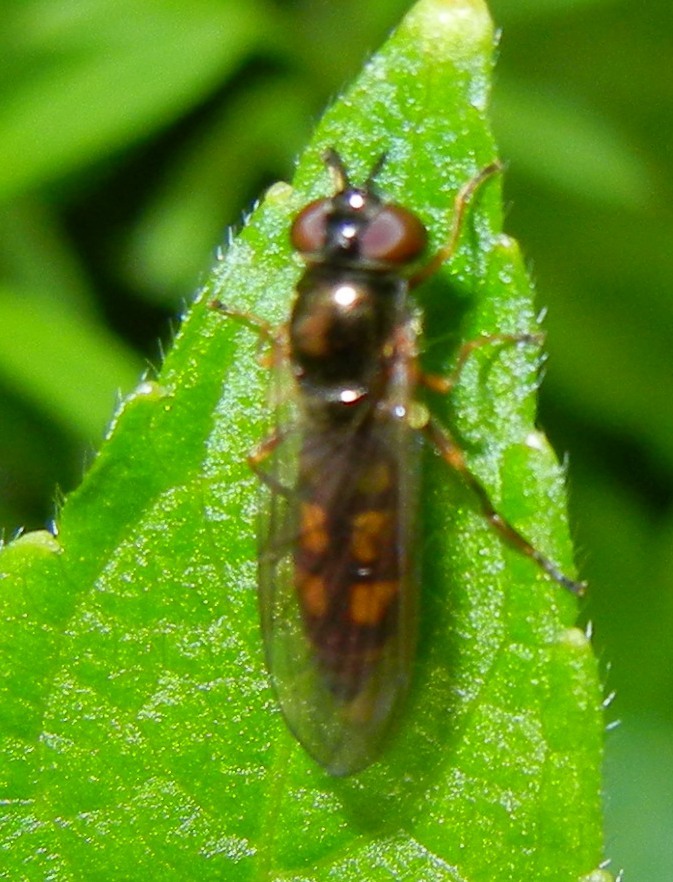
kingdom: Animalia
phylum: Arthropoda
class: Insecta
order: Diptera
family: Syrphidae
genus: Melanostoma
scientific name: Melanostoma scalare
